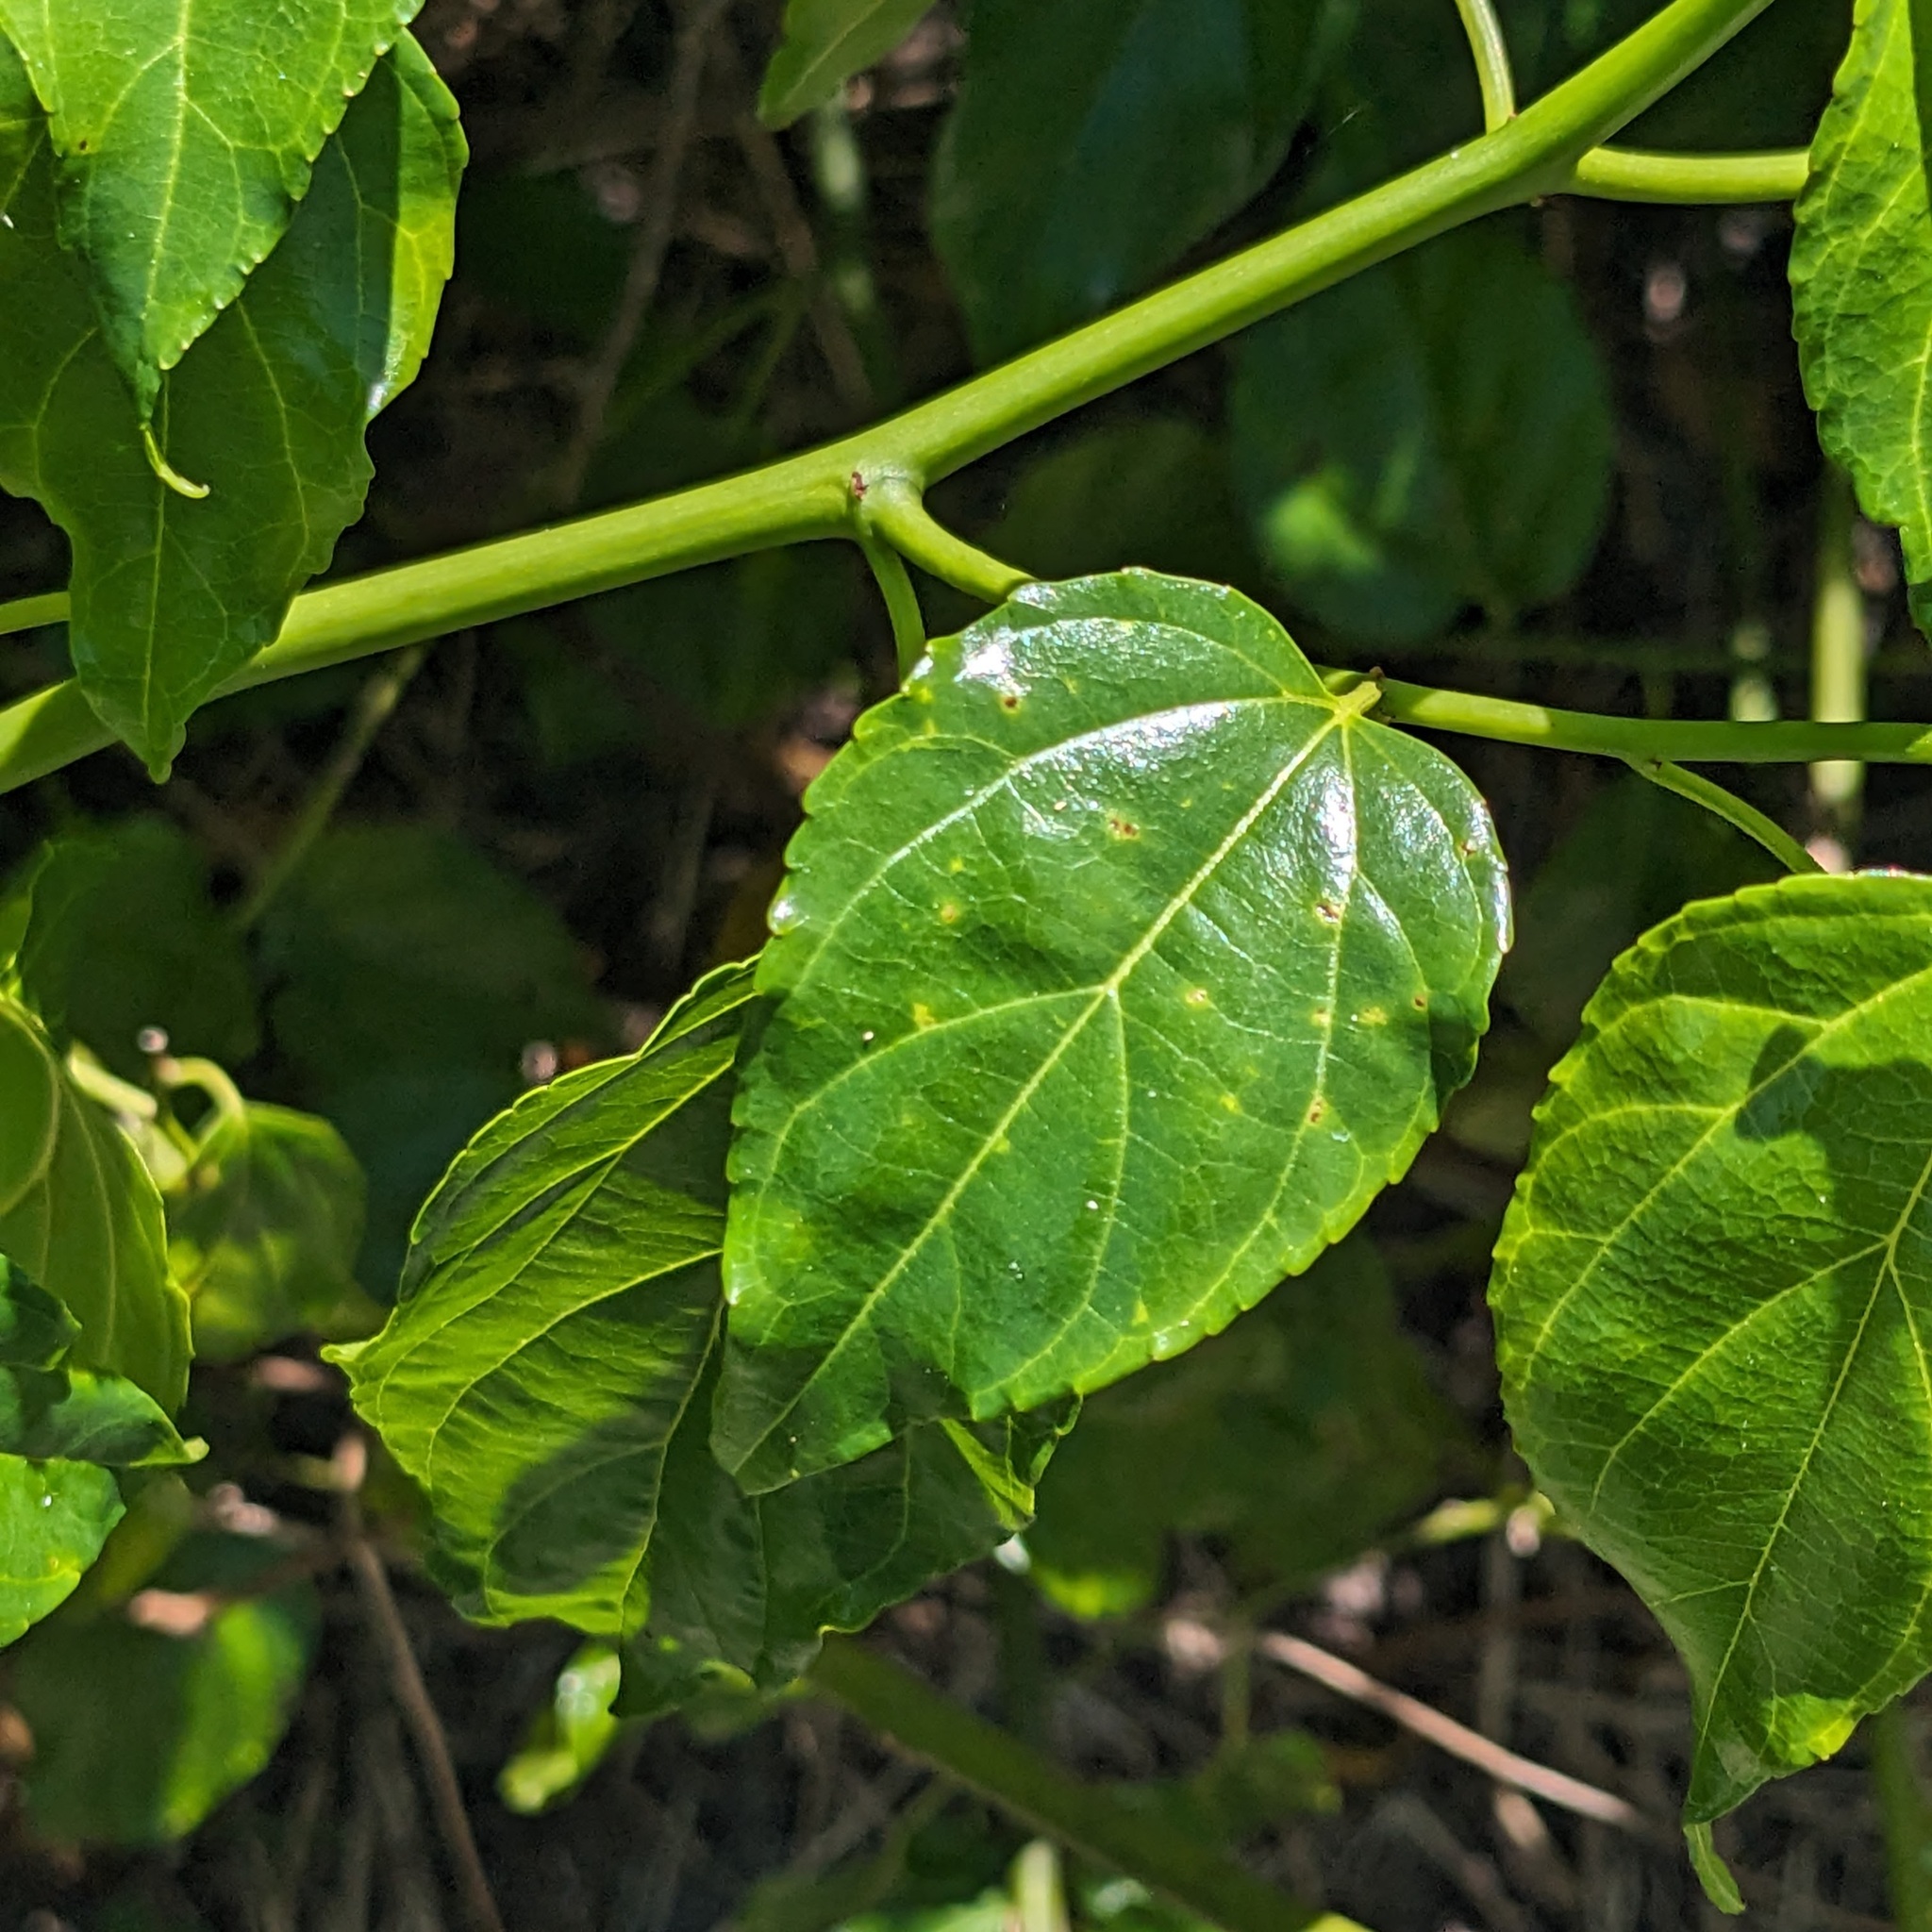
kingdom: Plantae
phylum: Tracheophyta
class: Magnoliopsida
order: Rosales
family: Rhamnaceae
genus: Colubrina
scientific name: Colubrina asiatica
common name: Asian nakedwood
